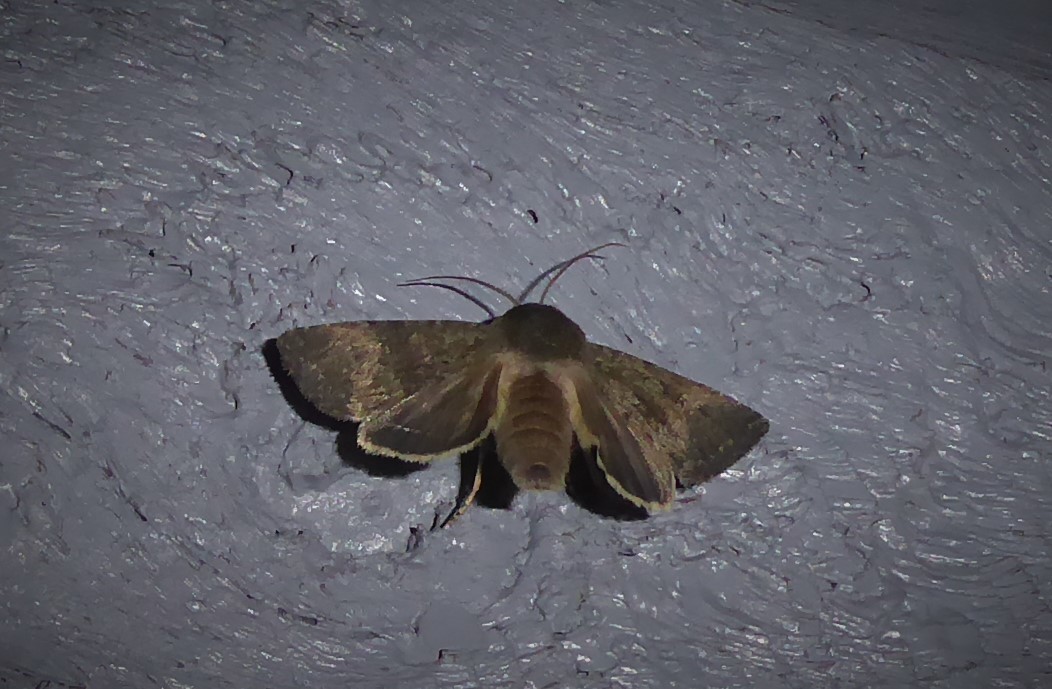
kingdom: Animalia
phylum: Arthropoda
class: Insecta
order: Lepidoptera
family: Noctuidae
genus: Ichneutica
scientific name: Ichneutica moderata
